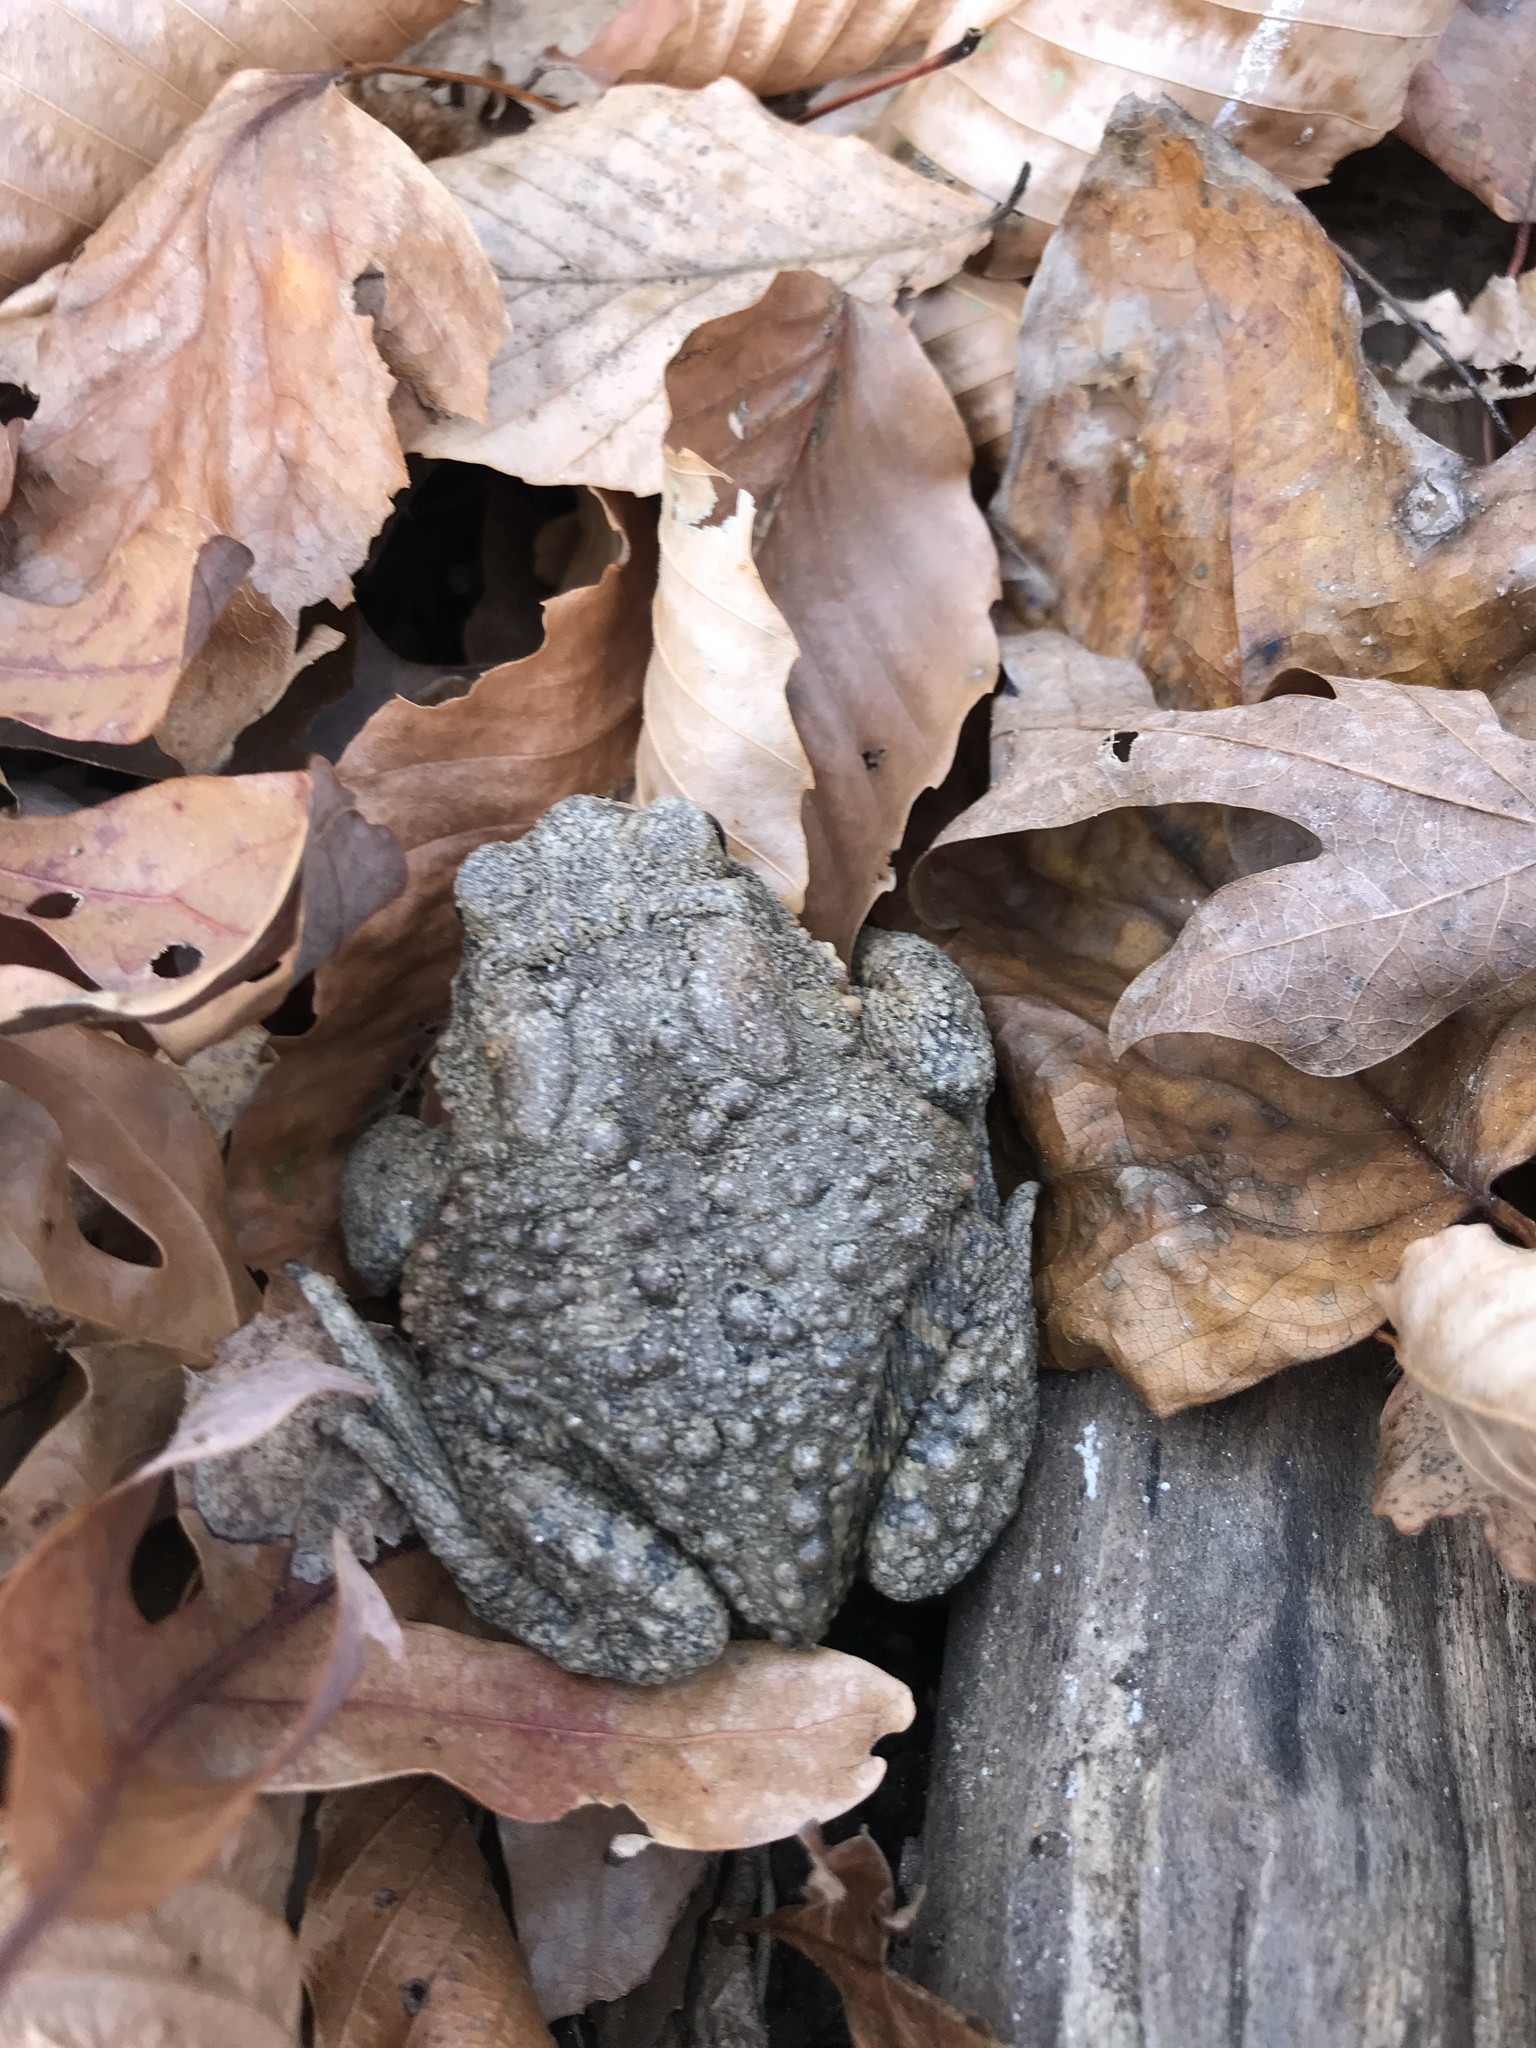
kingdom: Animalia
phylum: Chordata
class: Amphibia
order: Anura
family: Bufonidae
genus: Anaxyrus
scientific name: Anaxyrus americanus
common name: American toad
